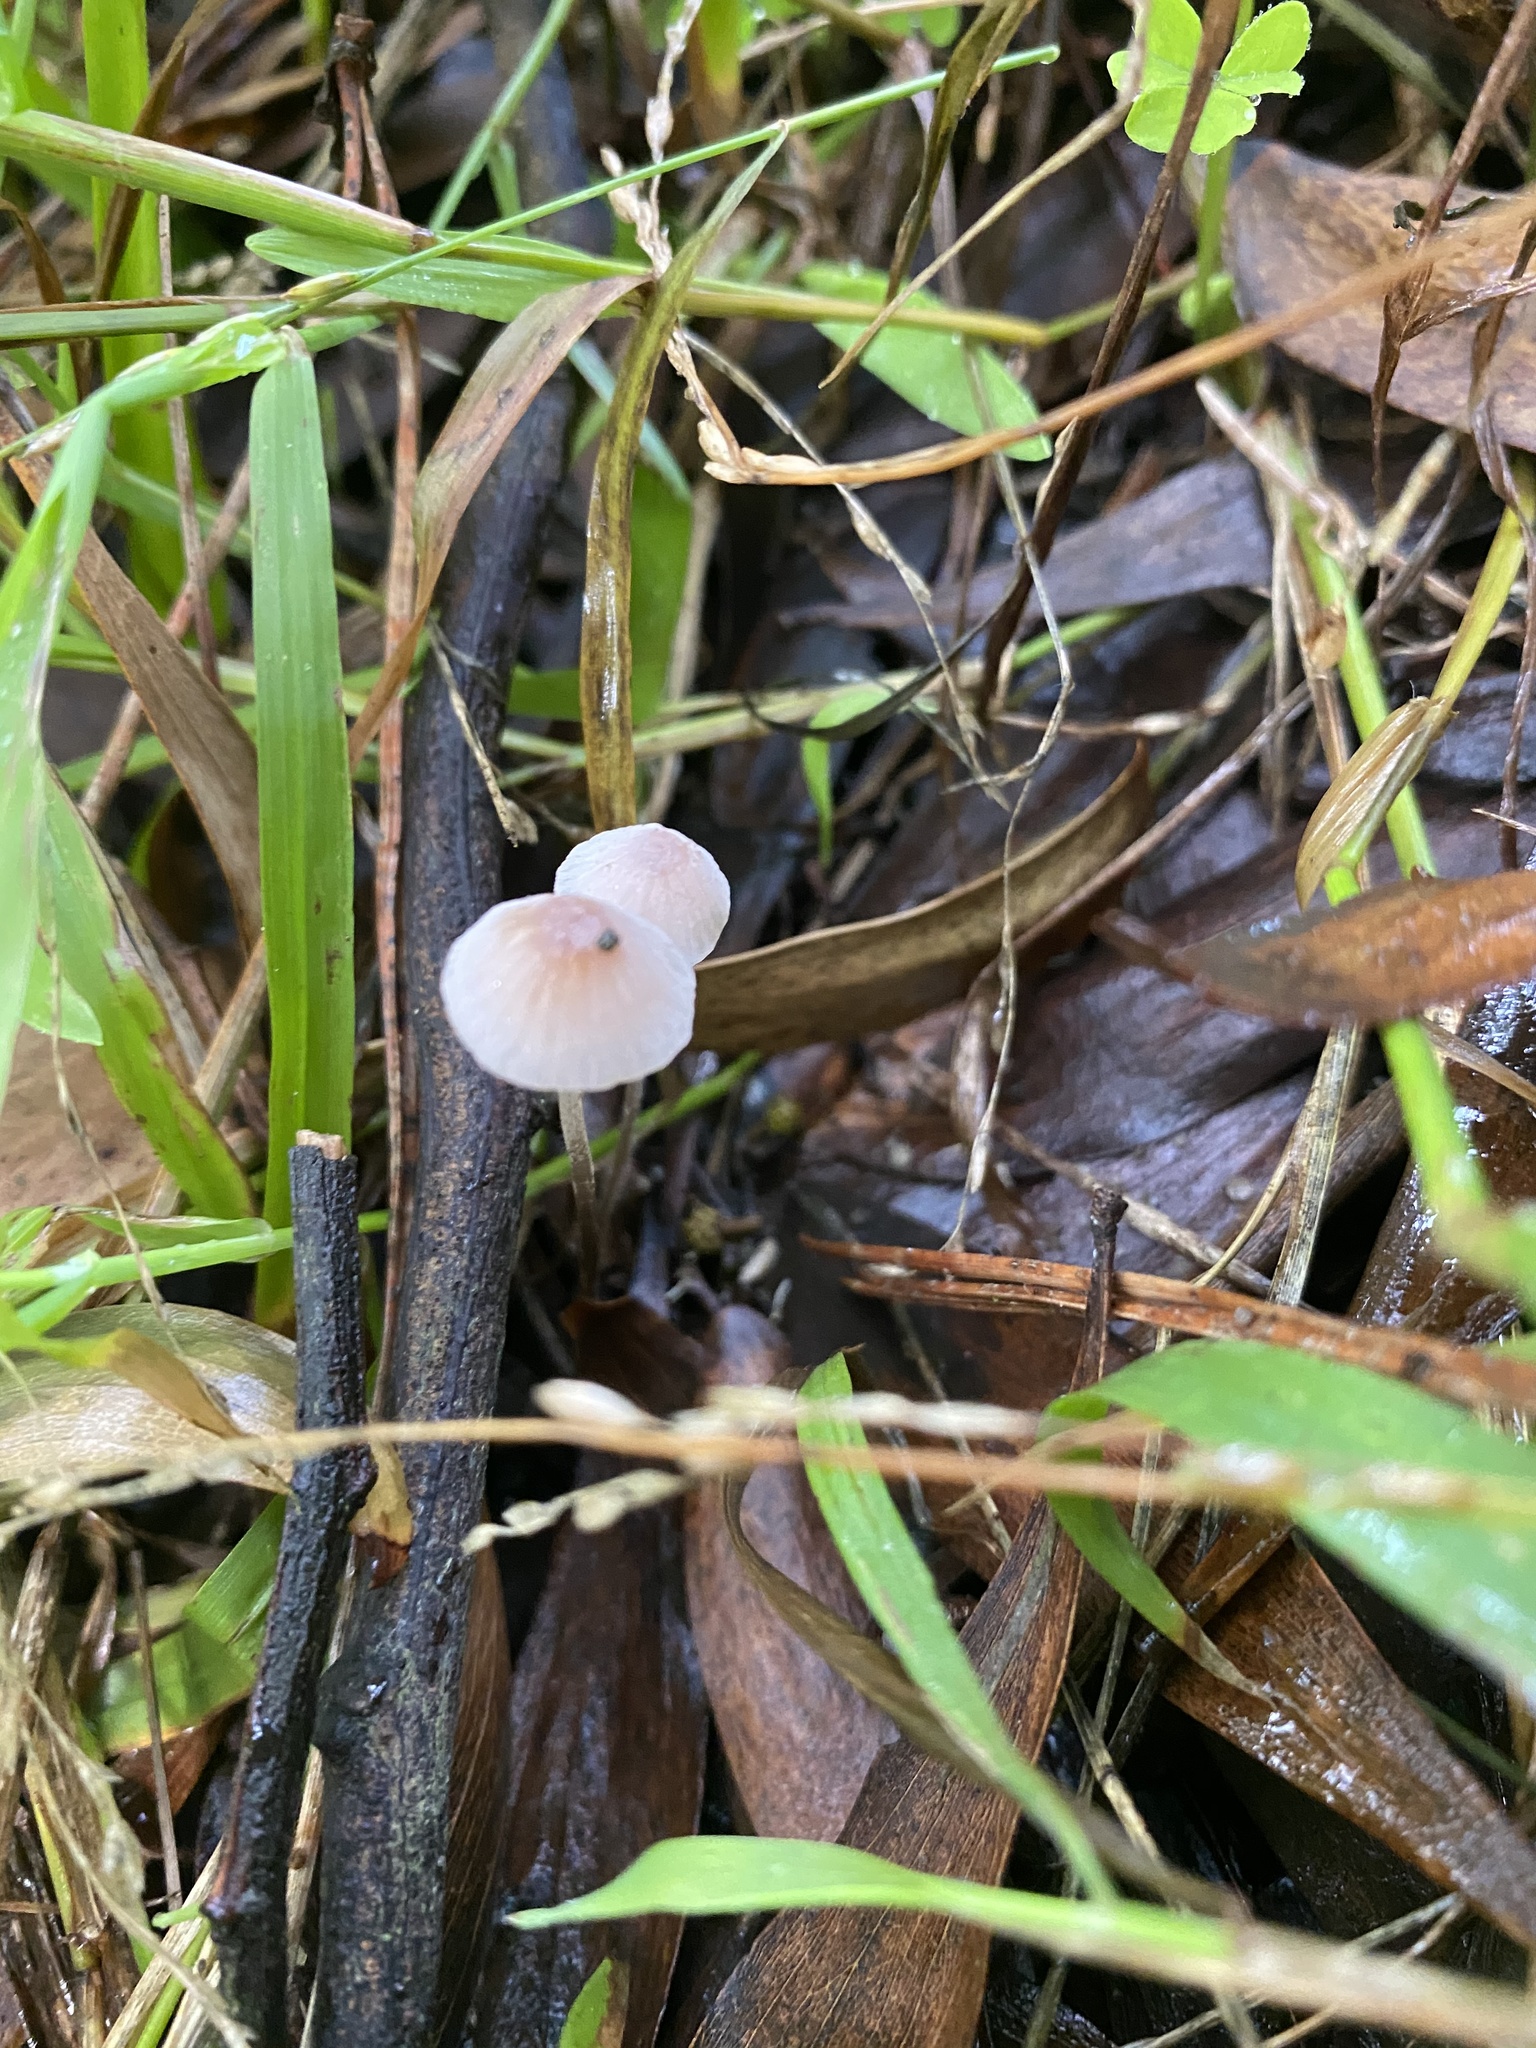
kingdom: Fungi
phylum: Basidiomycota
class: Agaricomycetes
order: Agaricales
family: Mycenaceae
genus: Mycena
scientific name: Mycena rosella
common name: Pink bonnet
